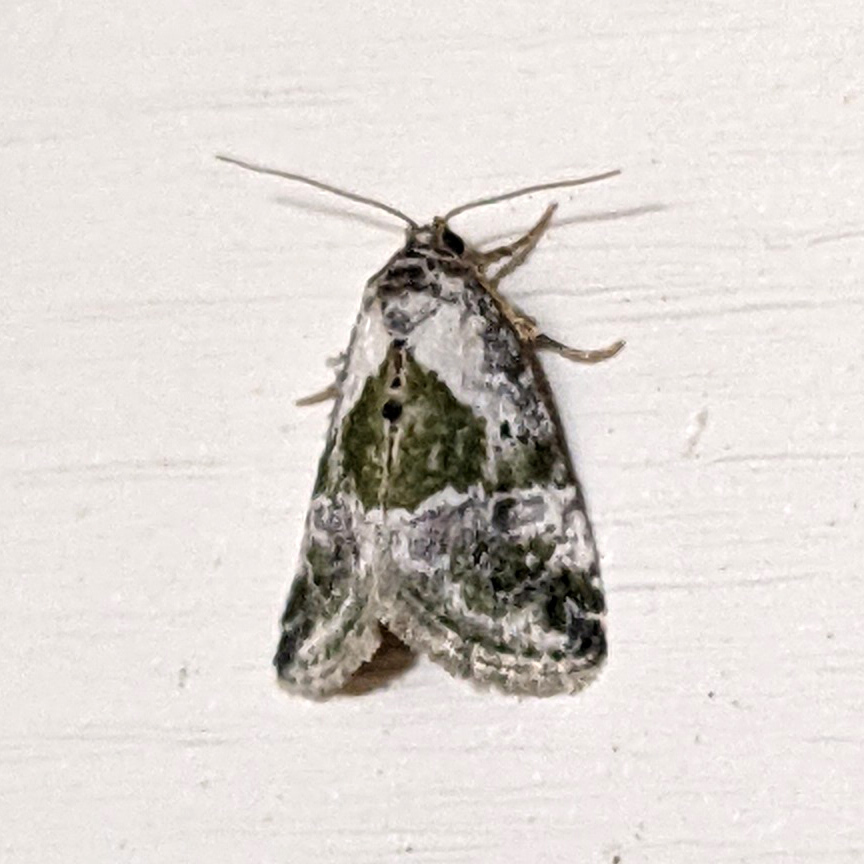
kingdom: Animalia
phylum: Arthropoda
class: Insecta
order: Lepidoptera
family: Noctuidae
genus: Maliattha
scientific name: Maliattha synochitis
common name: Black-dotted glyph
